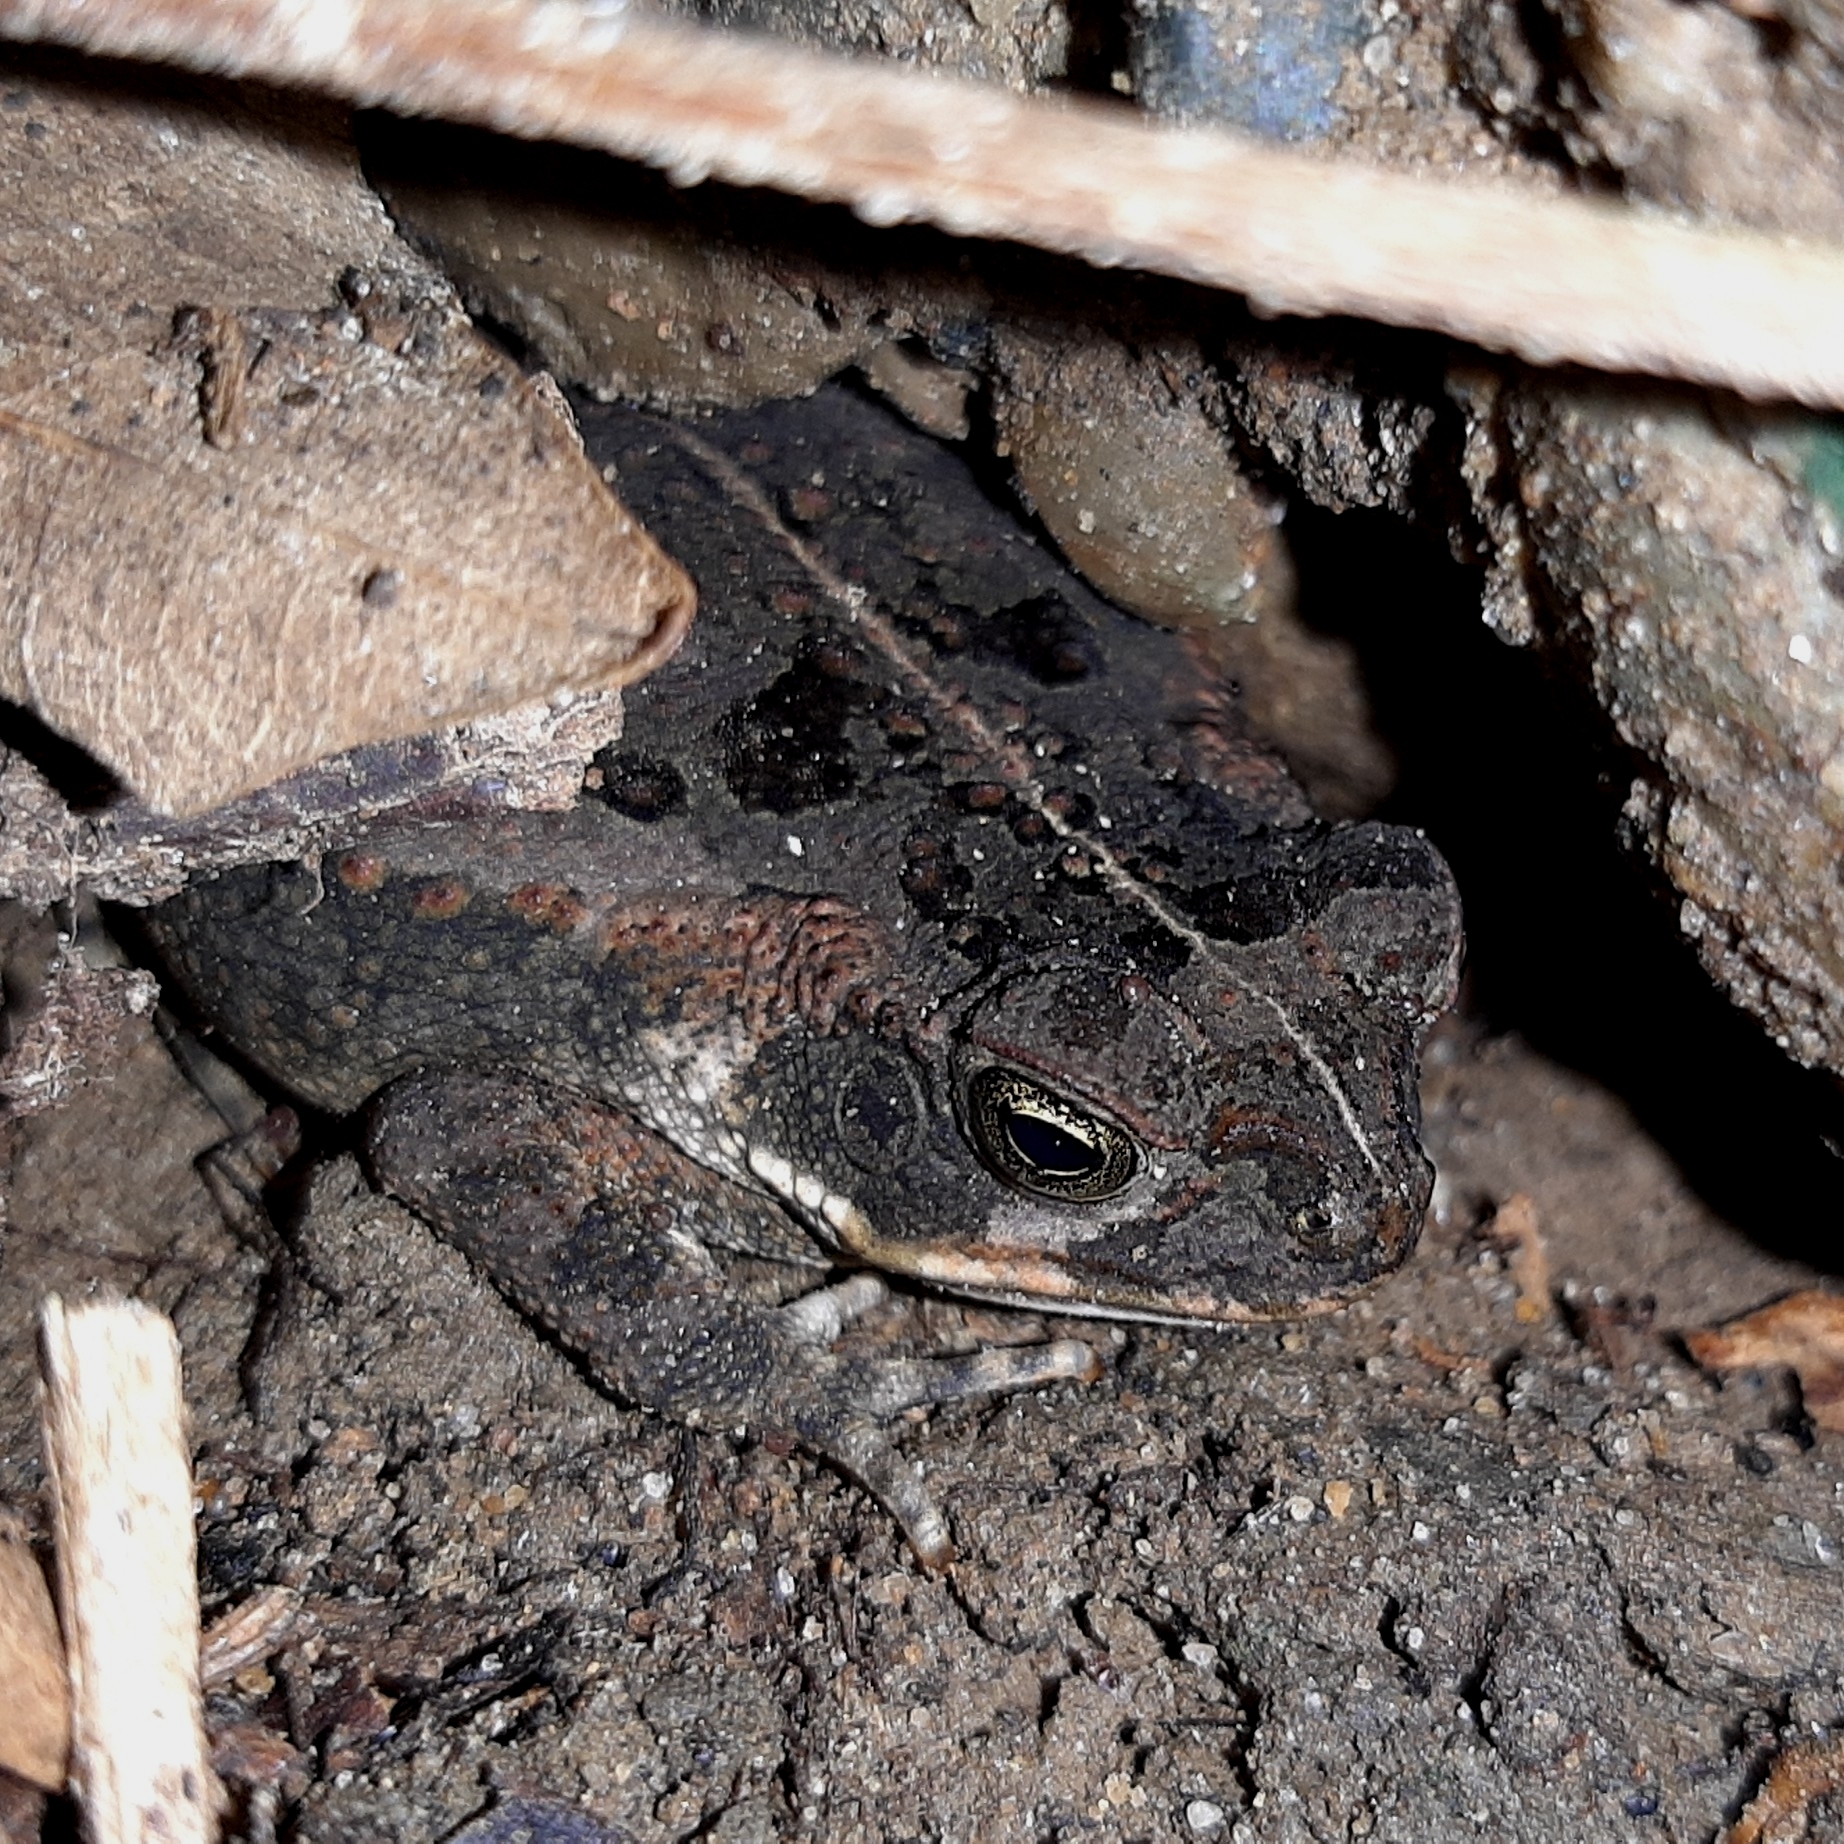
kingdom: Animalia
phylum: Chordata
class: Amphibia
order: Anura
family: Bufonidae
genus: Rhinella
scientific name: Rhinella horribilis
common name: Mesoamerican cane toad
